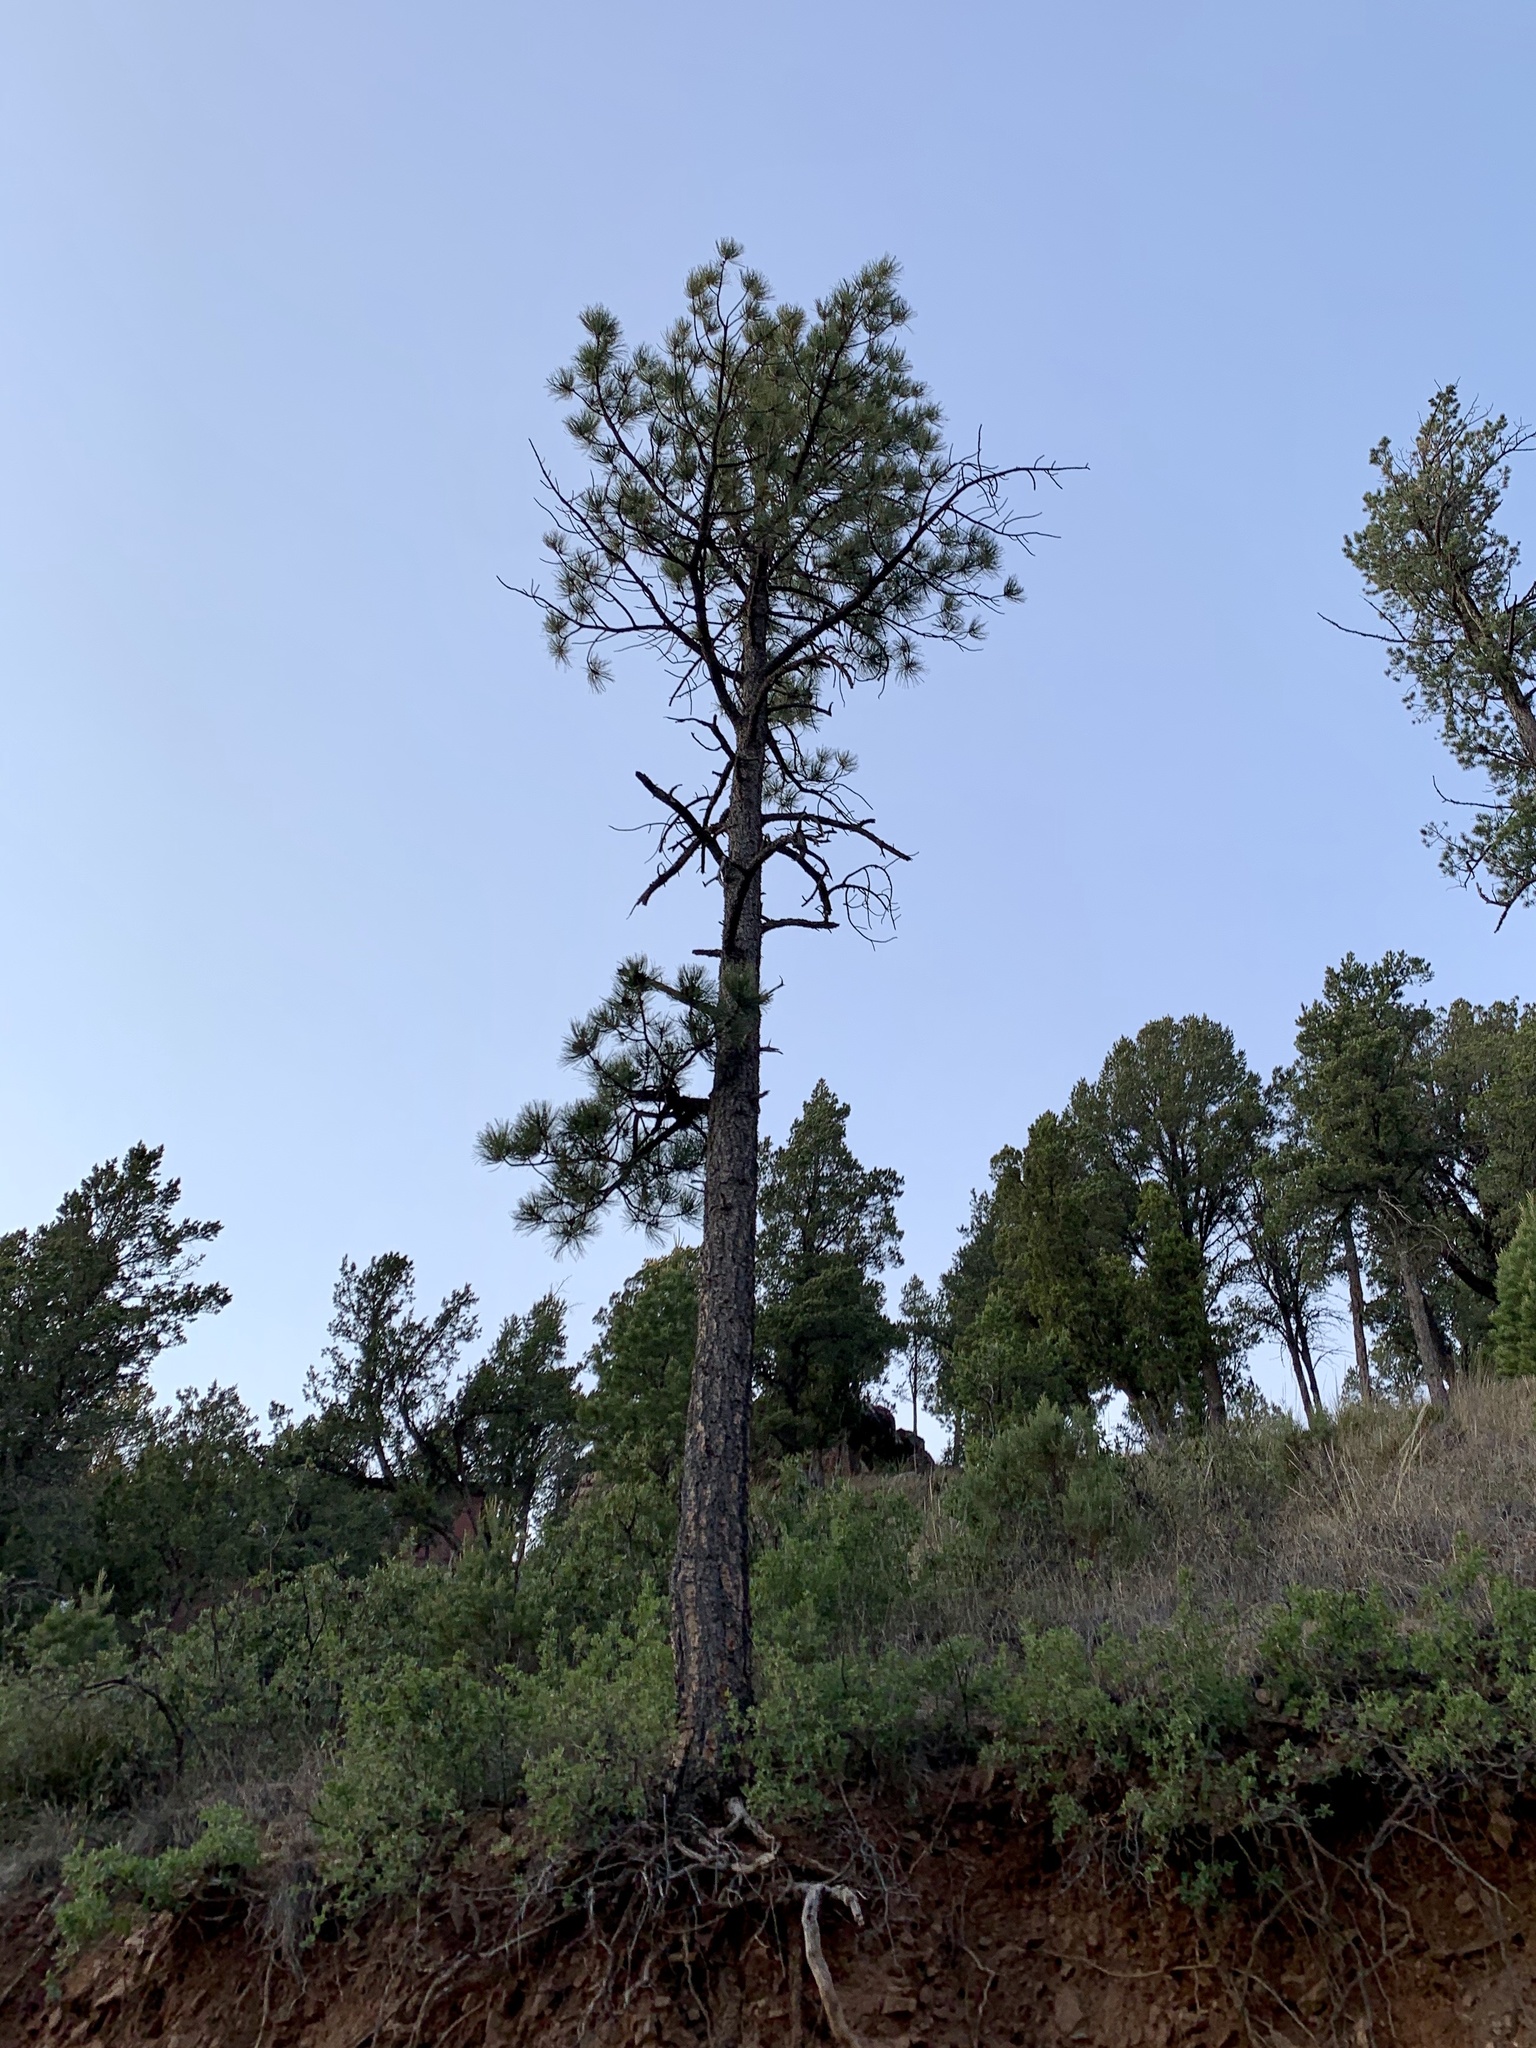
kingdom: Plantae
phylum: Tracheophyta
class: Pinopsida
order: Pinales
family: Pinaceae
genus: Pinus
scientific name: Pinus ponderosa
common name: Western yellow-pine
